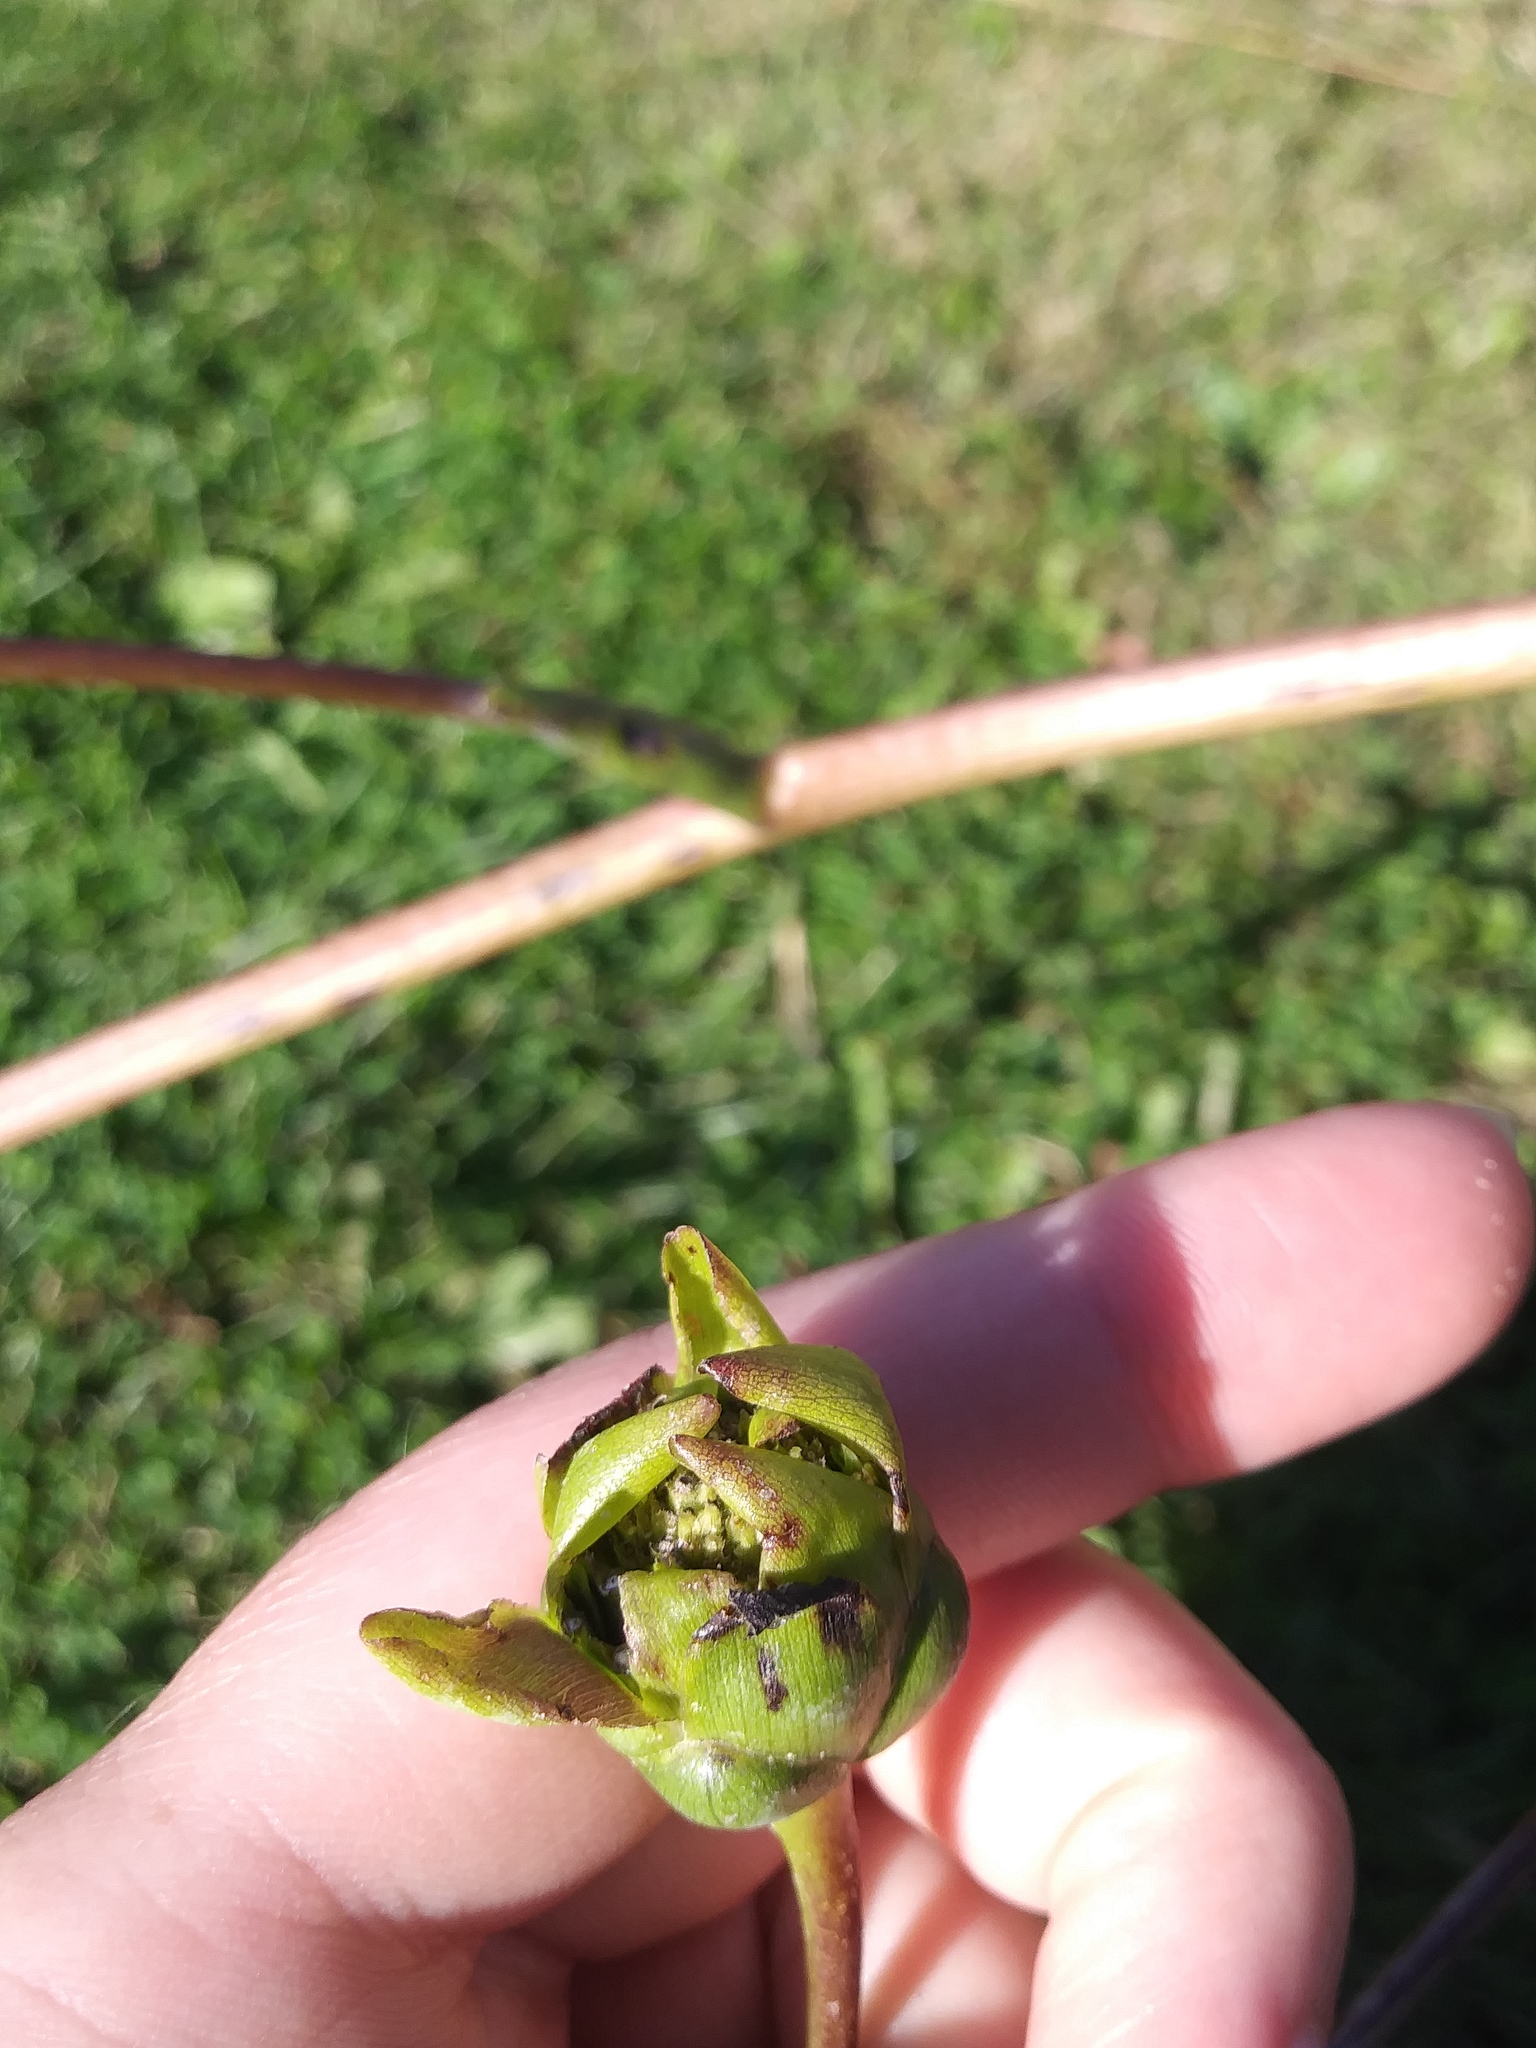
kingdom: Plantae
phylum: Tracheophyta
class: Magnoliopsida
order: Asterales
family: Asteraceae
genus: Silphium
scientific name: Silphium terebinthinaceum
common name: Basal-leaf rosinweed
